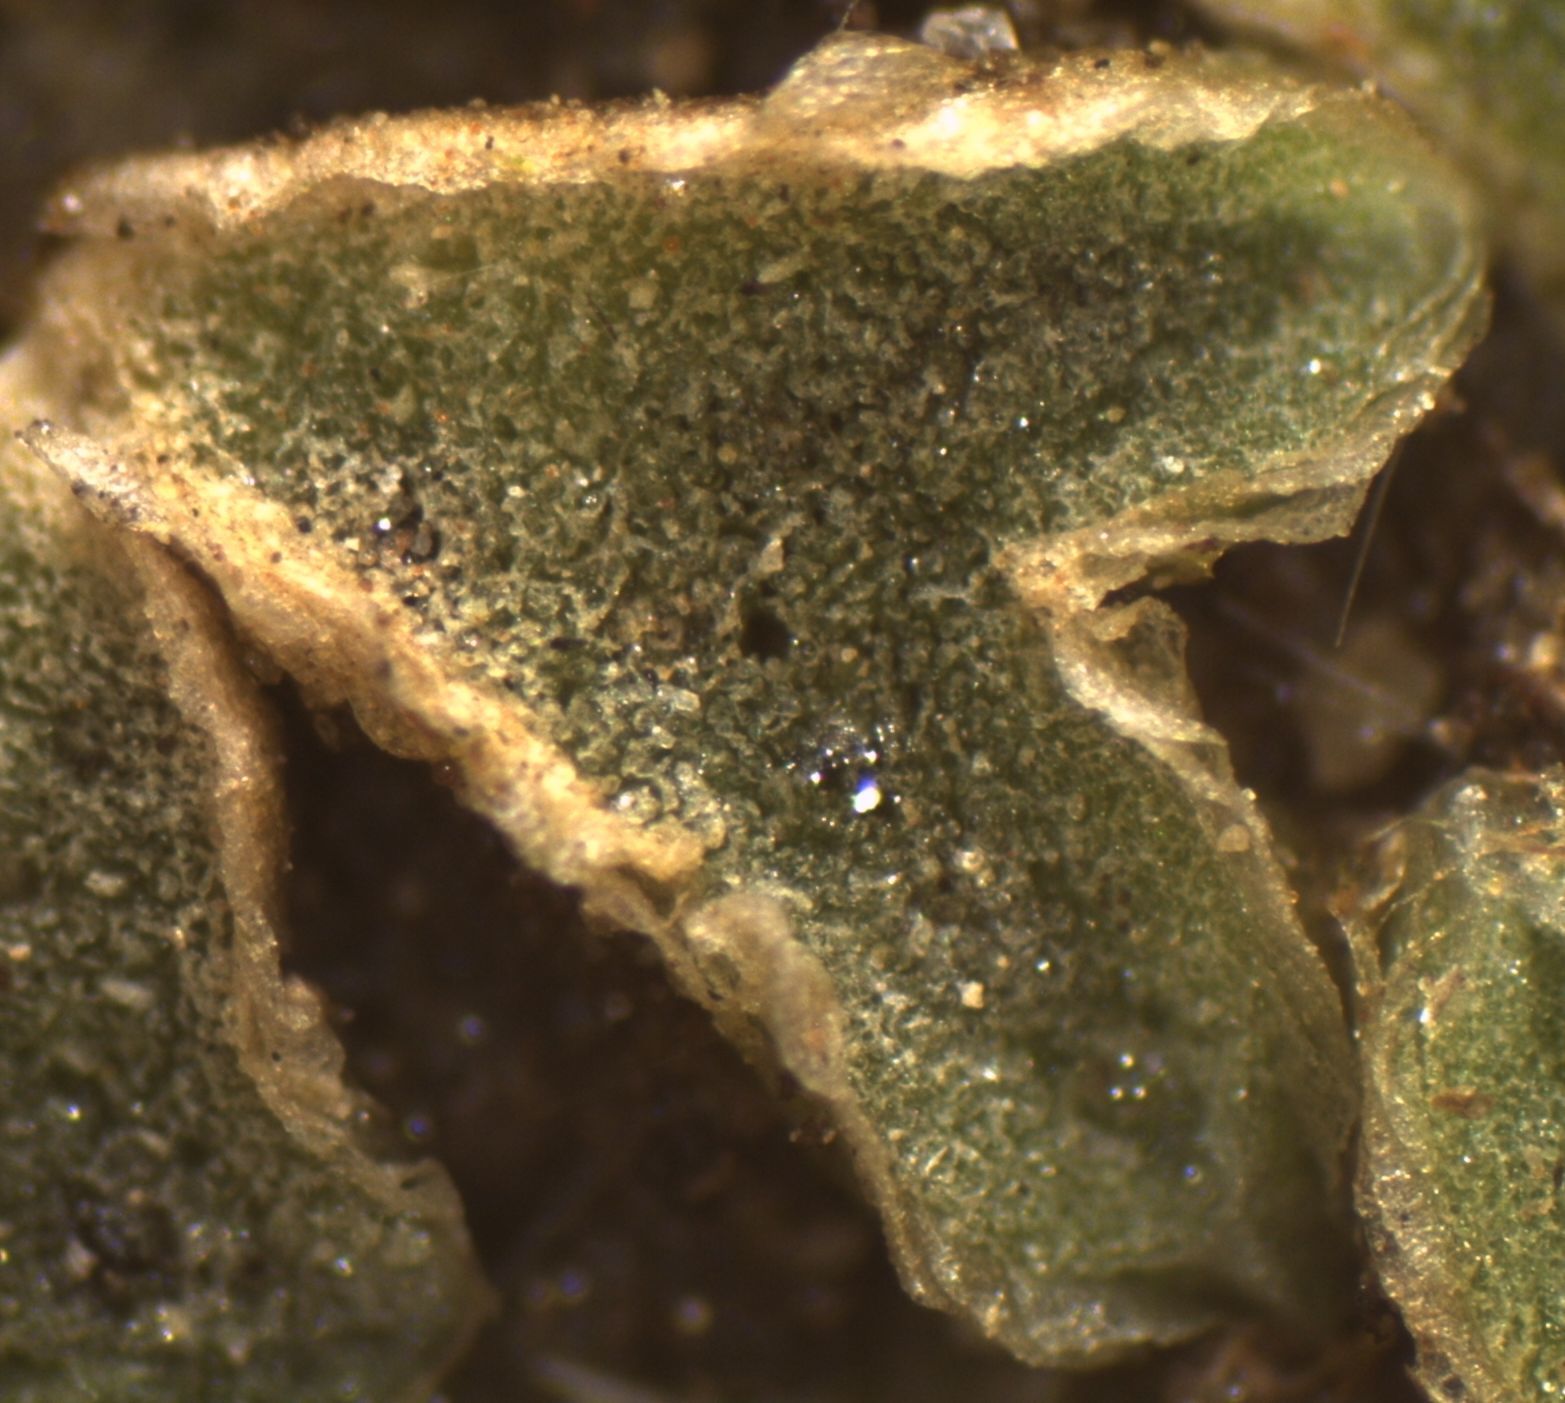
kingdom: Plantae
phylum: Marchantiophyta
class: Marchantiopsida
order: Marchantiales
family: Ricciaceae
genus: Riccia
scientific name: Riccia sorocarpa
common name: Common crystalwort
